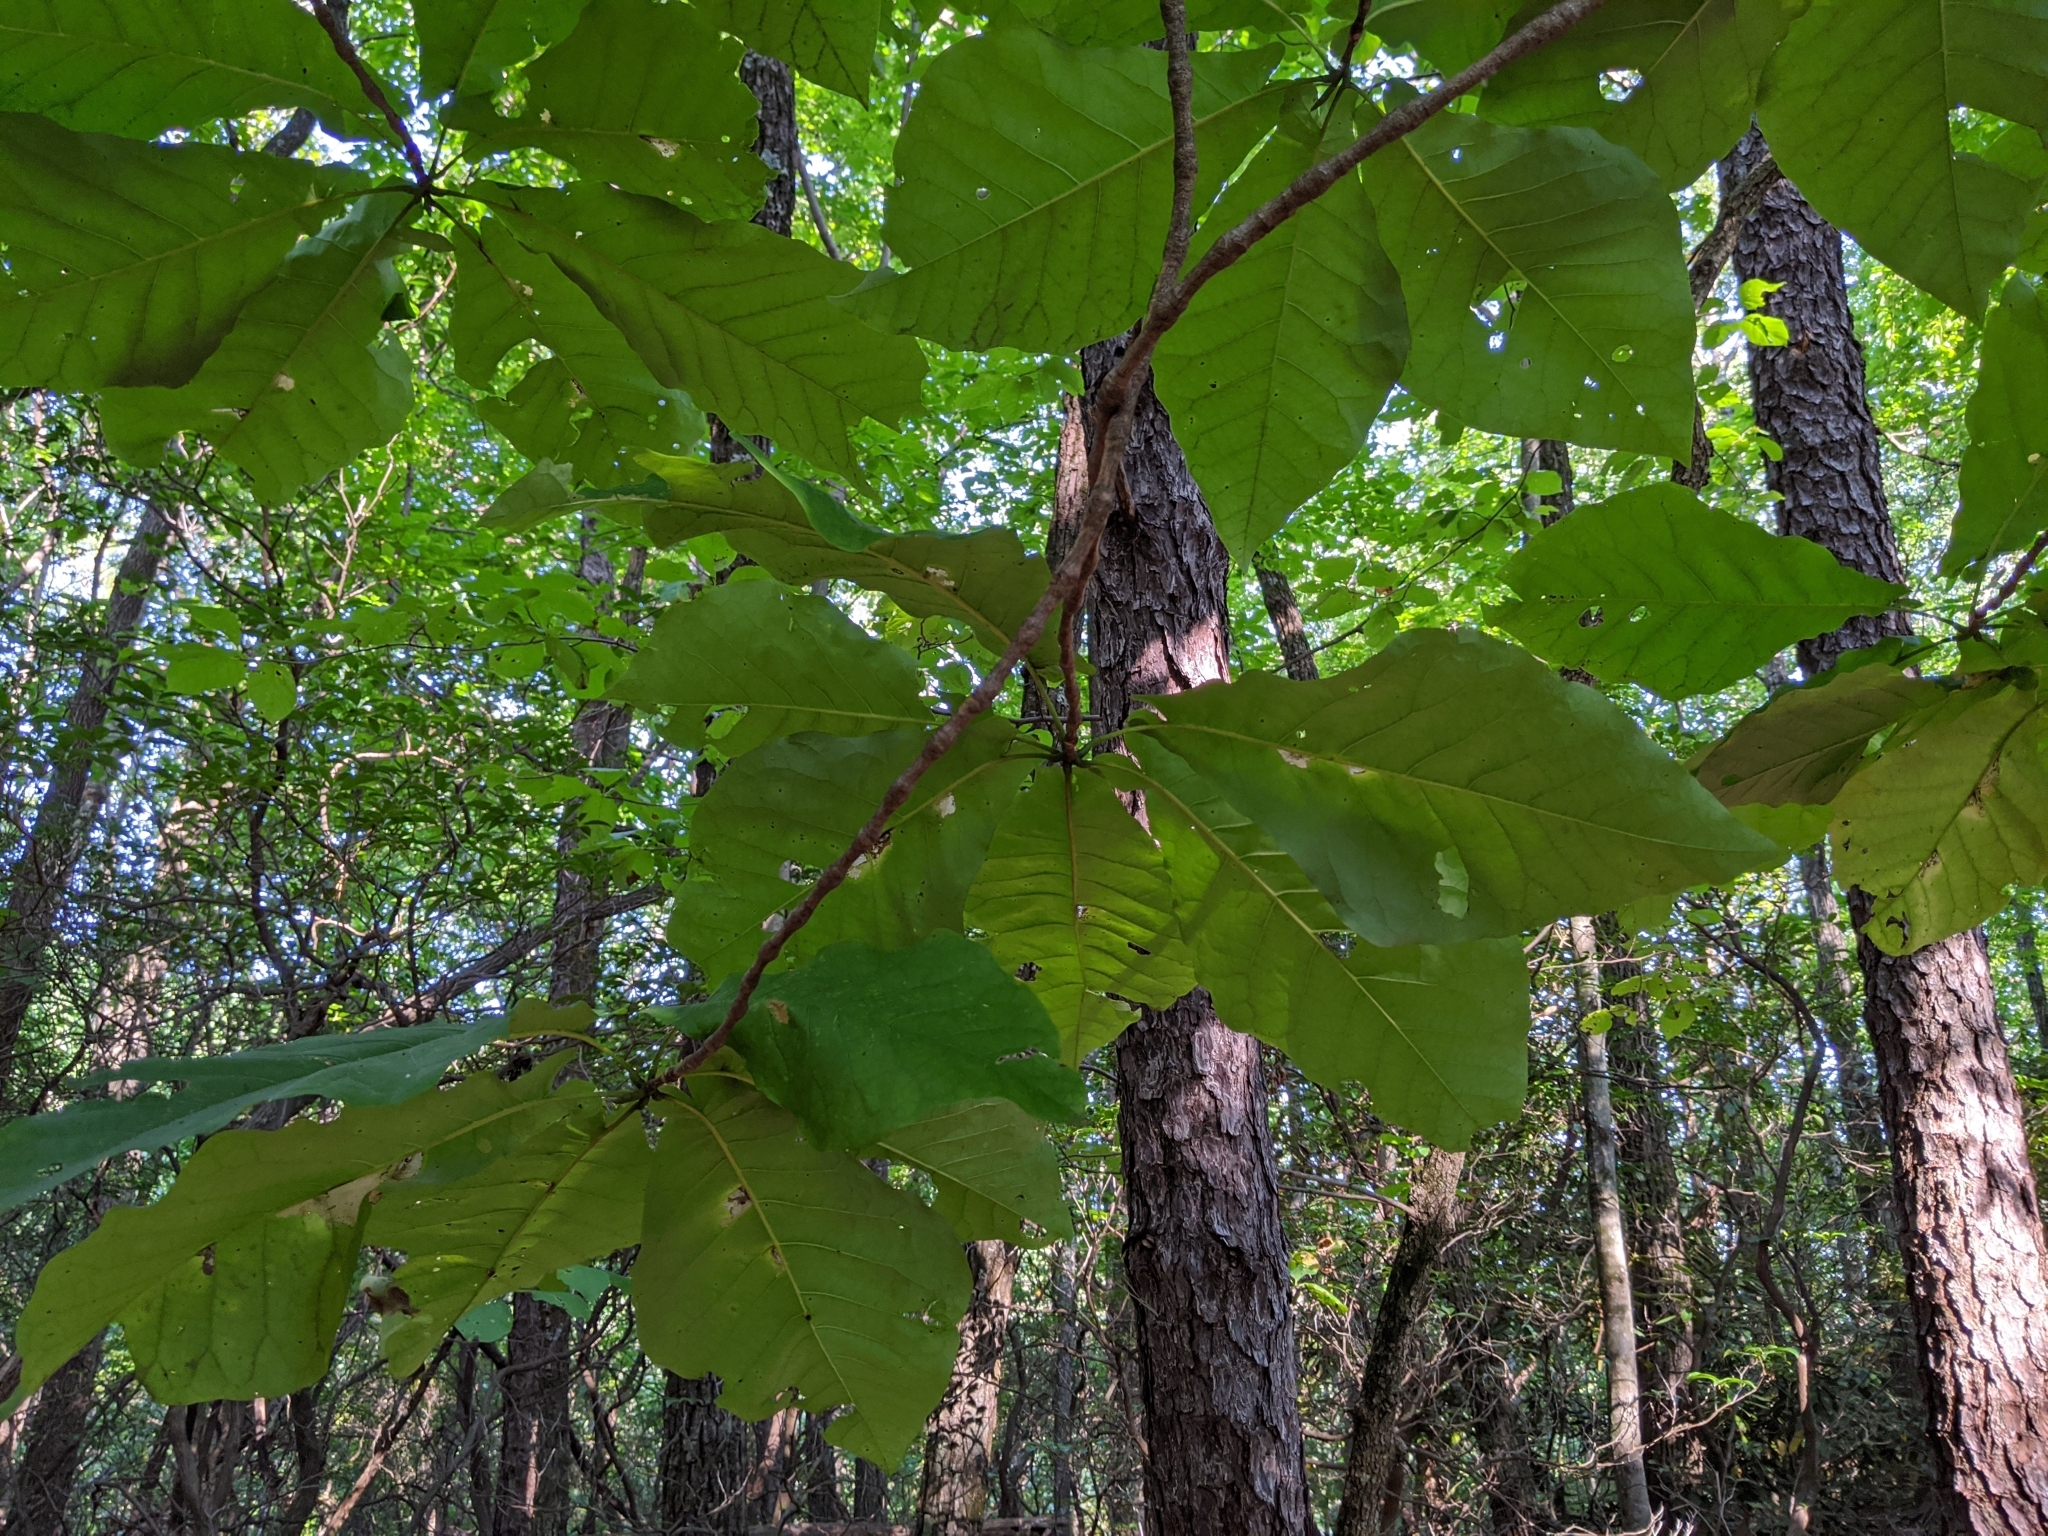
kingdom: Plantae
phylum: Tracheophyta
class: Magnoliopsida
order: Magnoliales
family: Magnoliaceae
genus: Magnolia
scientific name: Magnolia fraseri
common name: Fraser's magnolia
